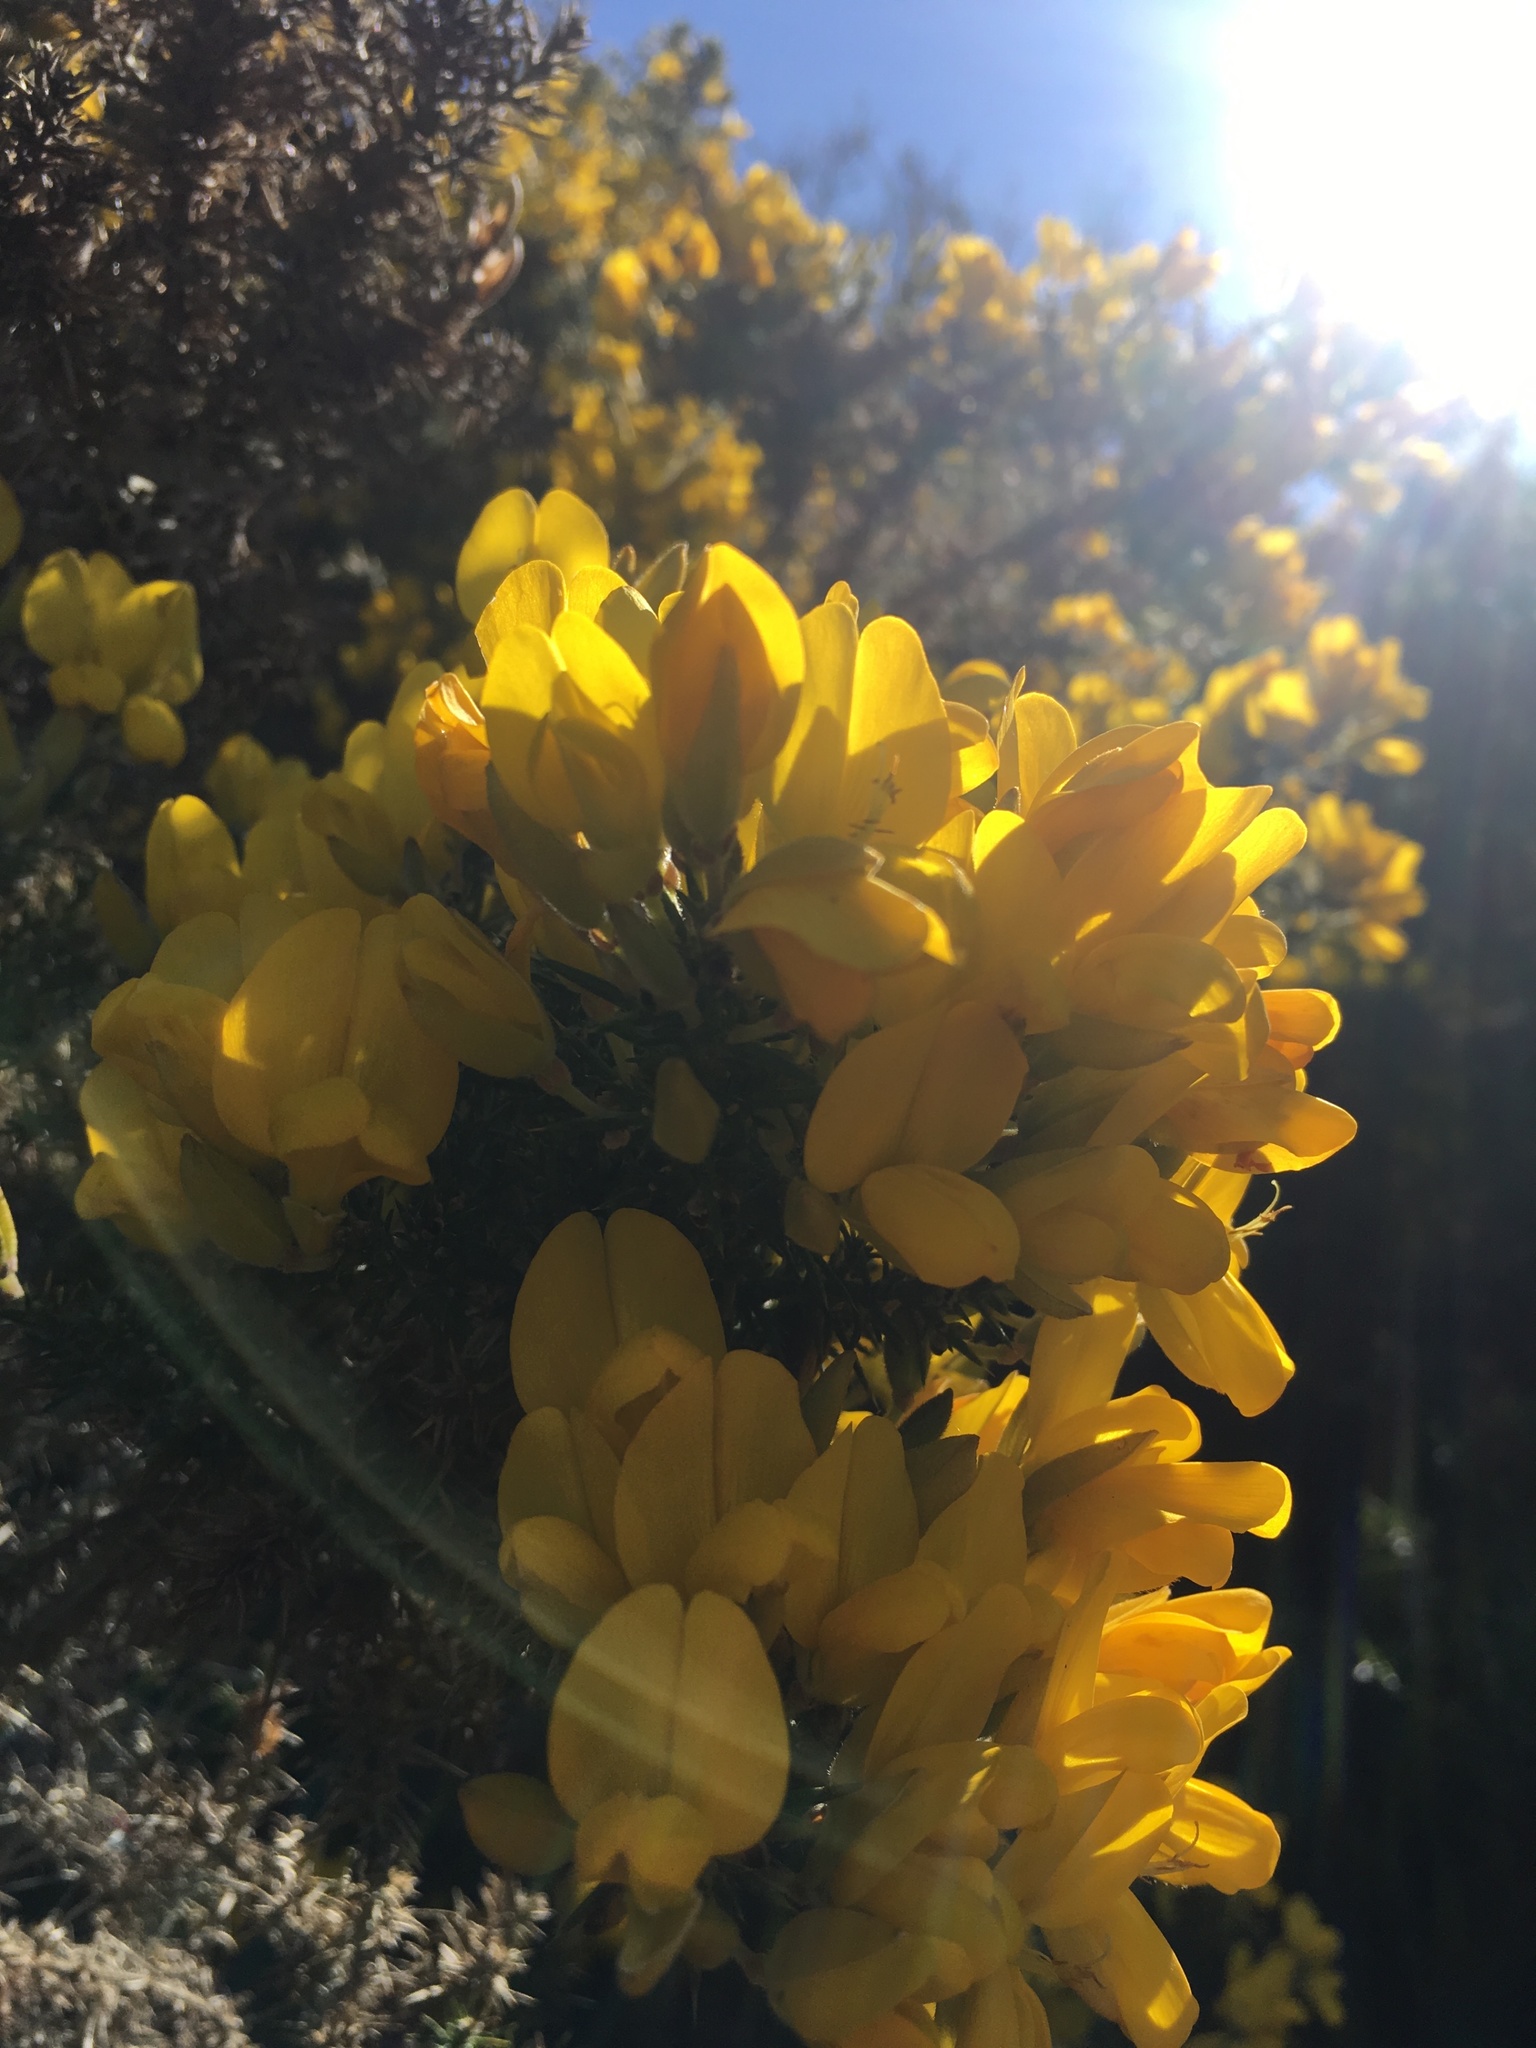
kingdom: Plantae
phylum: Tracheophyta
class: Magnoliopsida
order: Fabales
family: Fabaceae
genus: Ulex
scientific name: Ulex europaeus
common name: Common gorse
